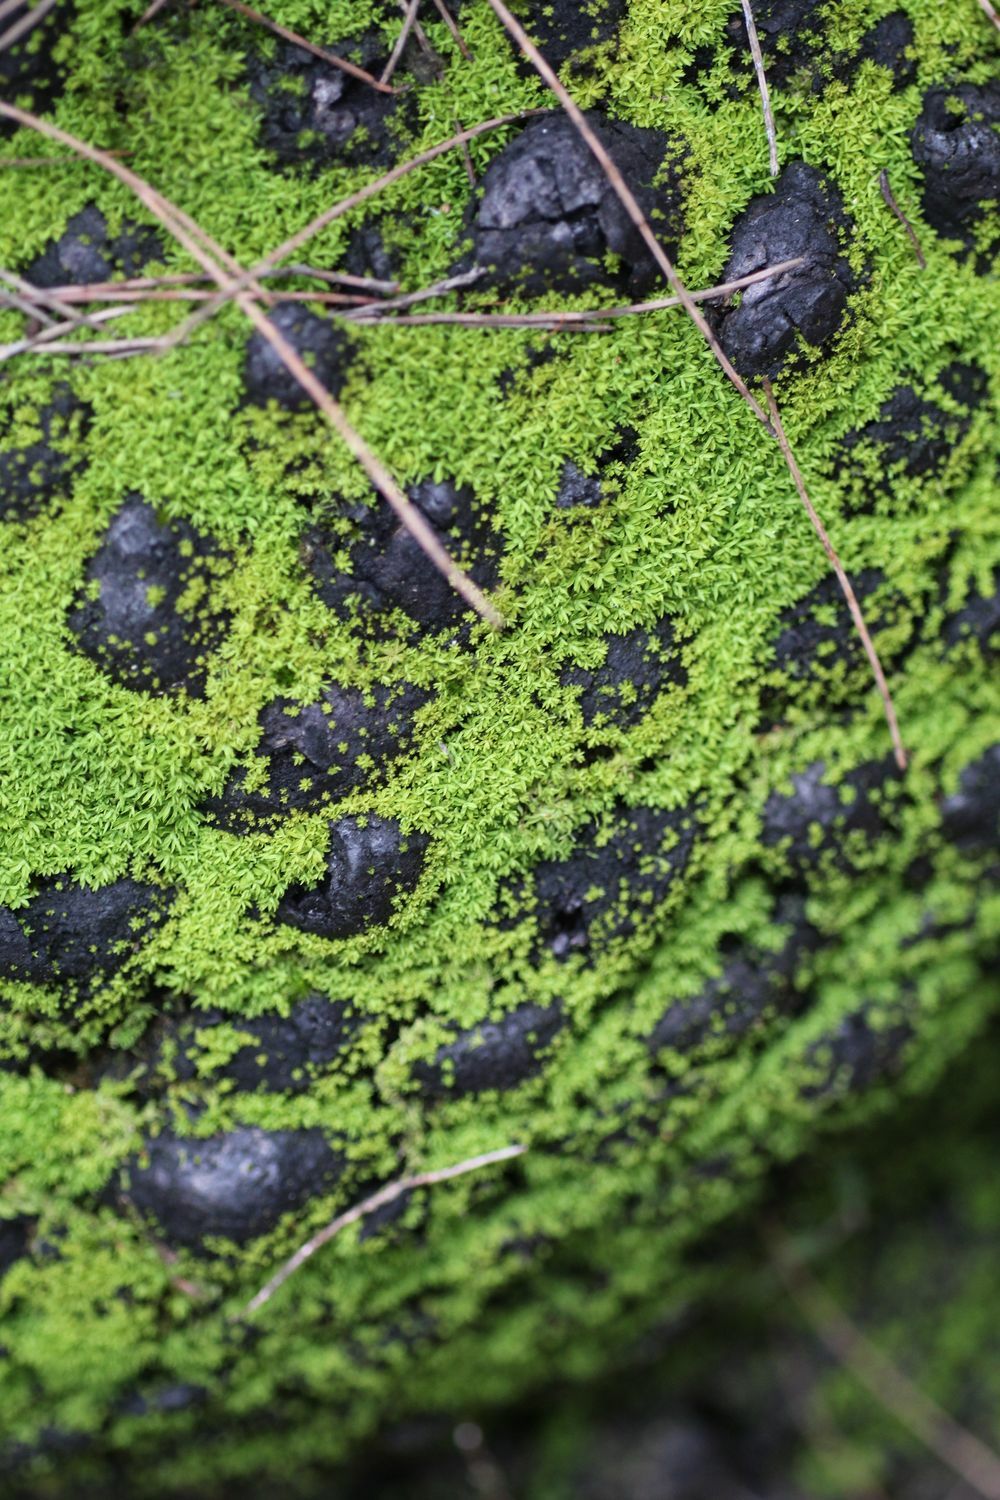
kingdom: Plantae
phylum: Bryophyta
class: Bryopsida
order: Pottiales
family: Pottiaceae
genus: Calymperastrum
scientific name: Calymperastrum latifolium
